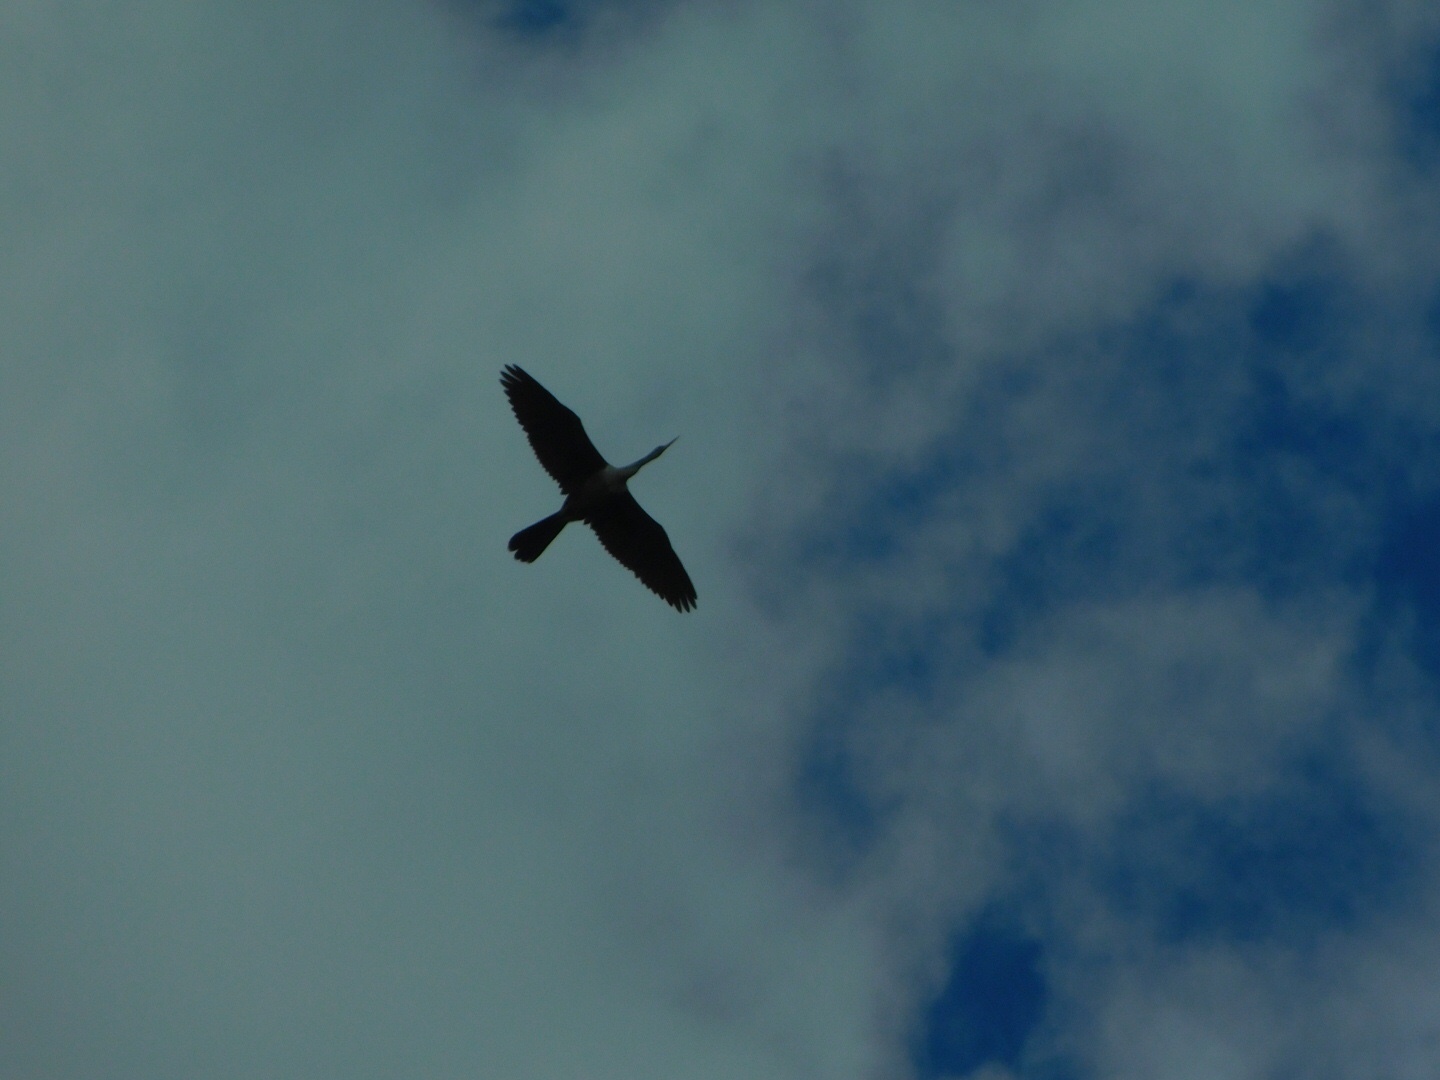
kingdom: Animalia
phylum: Chordata
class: Aves
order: Suliformes
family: Anhingidae
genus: Anhinga
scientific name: Anhinga anhinga
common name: Anhinga
